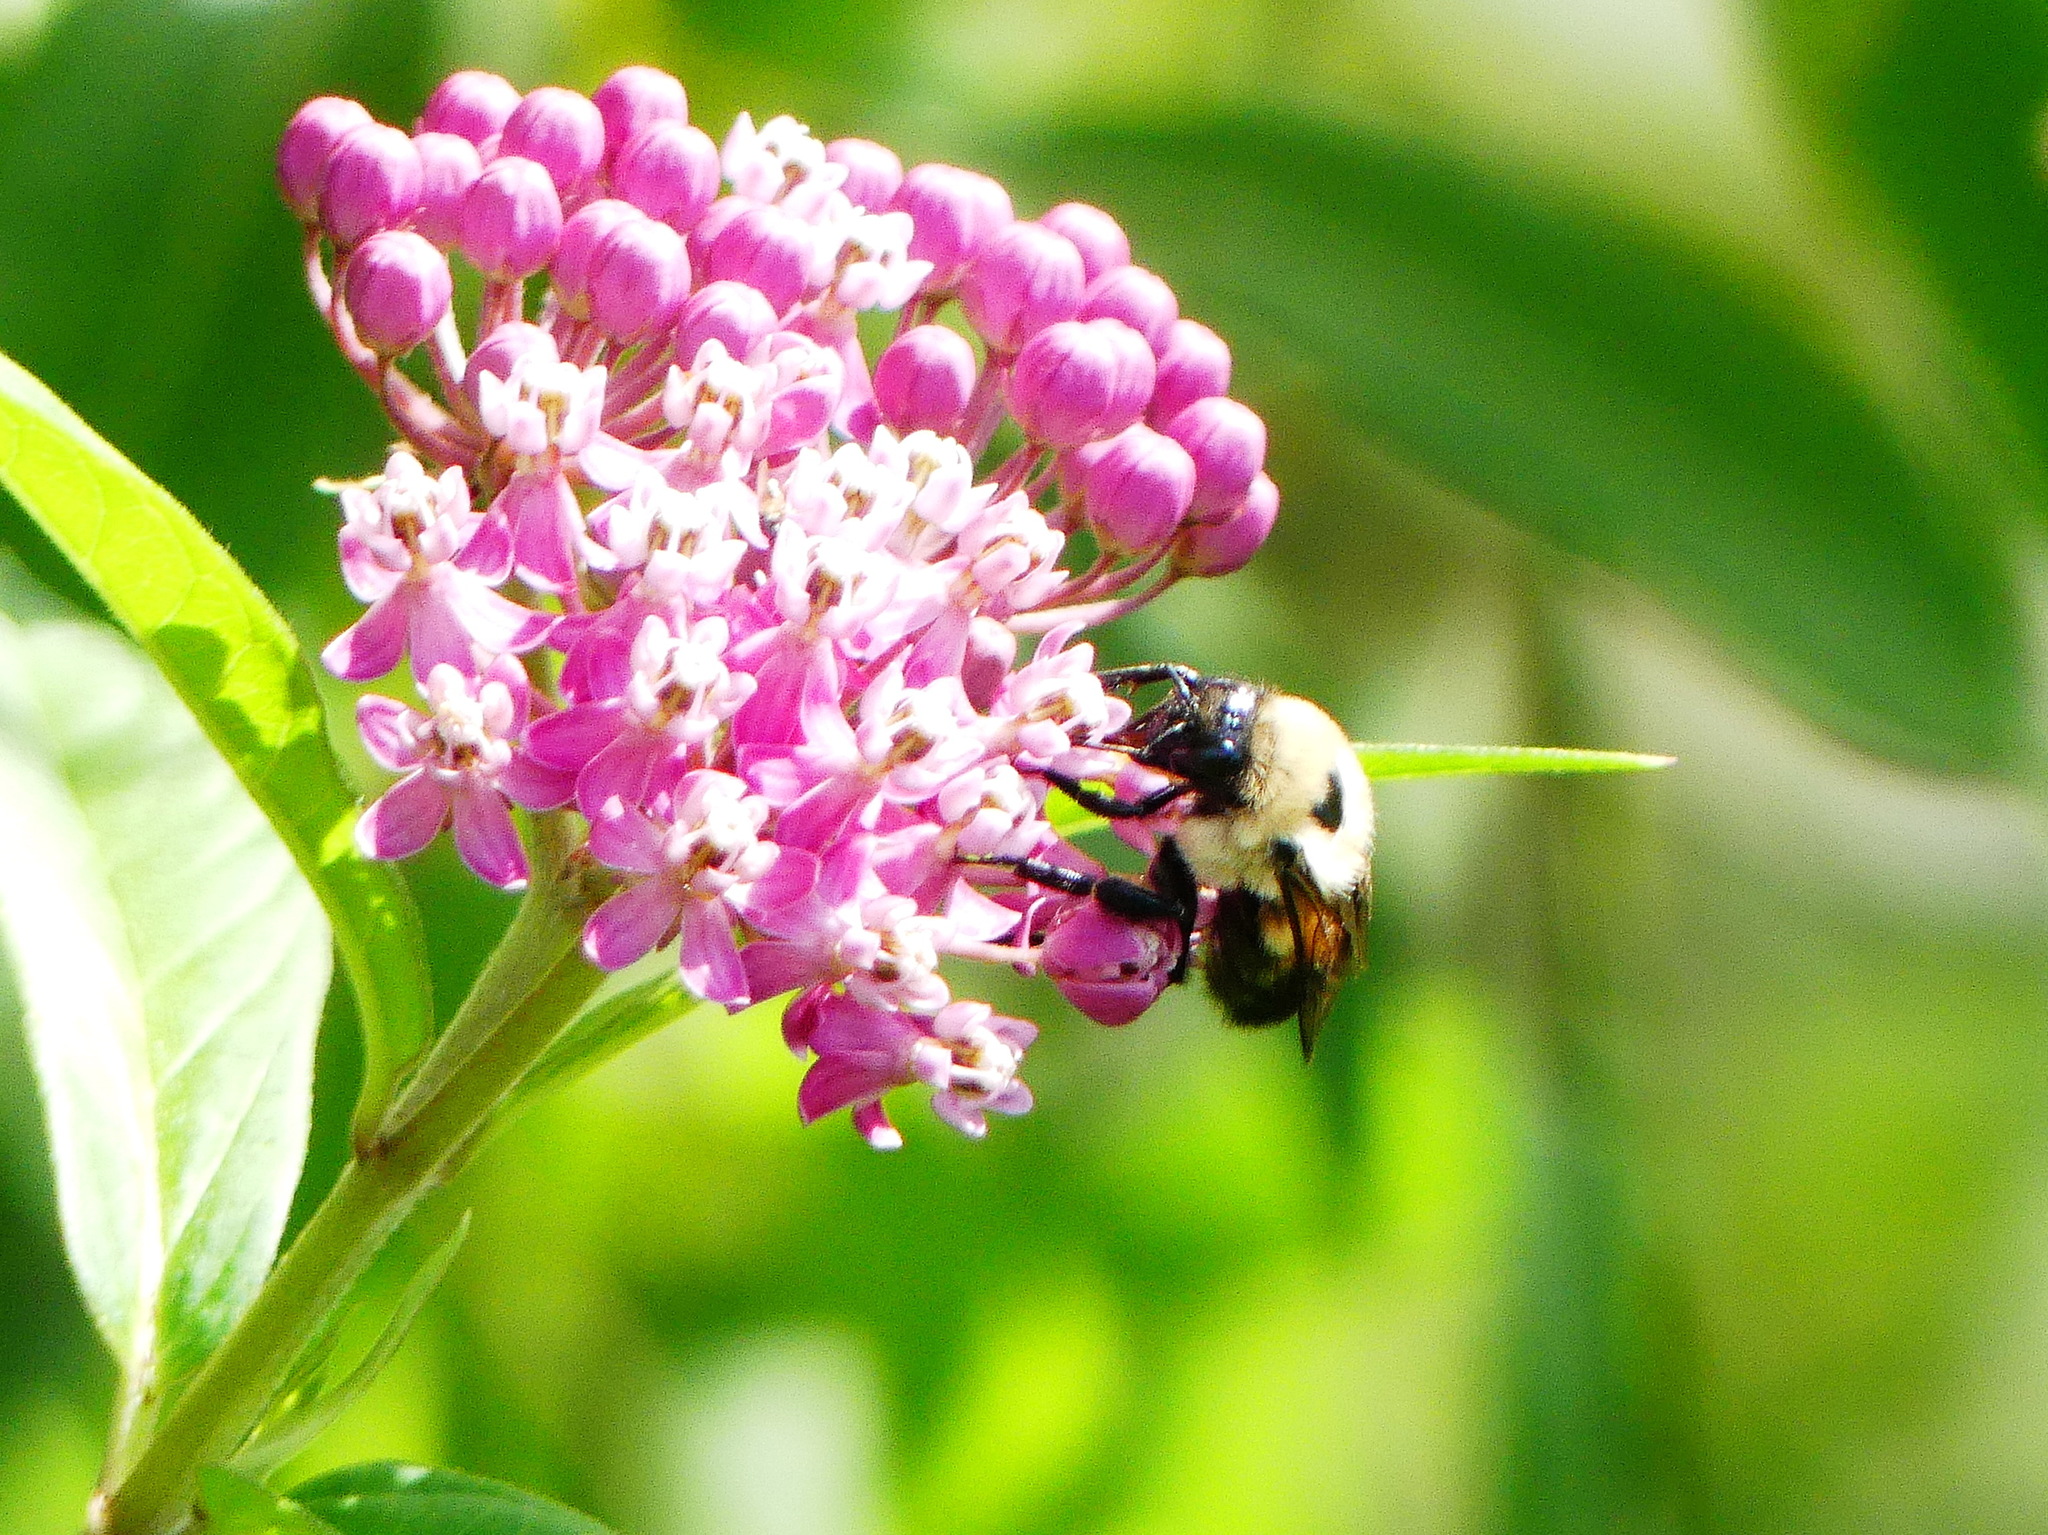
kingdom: Plantae
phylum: Tracheophyta
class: Magnoliopsida
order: Gentianales
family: Apocynaceae
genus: Asclepias
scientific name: Asclepias incarnata
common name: Swamp milkweed
